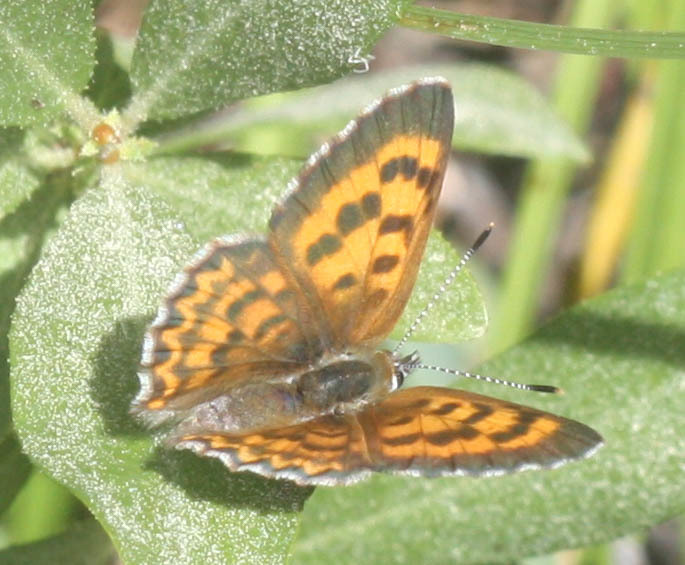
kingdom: Animalia
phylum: Arthropoda
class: Insecta
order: Lepidoptera
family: Lycaenidae
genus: Tharsalea
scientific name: Tharsalea mariposa
